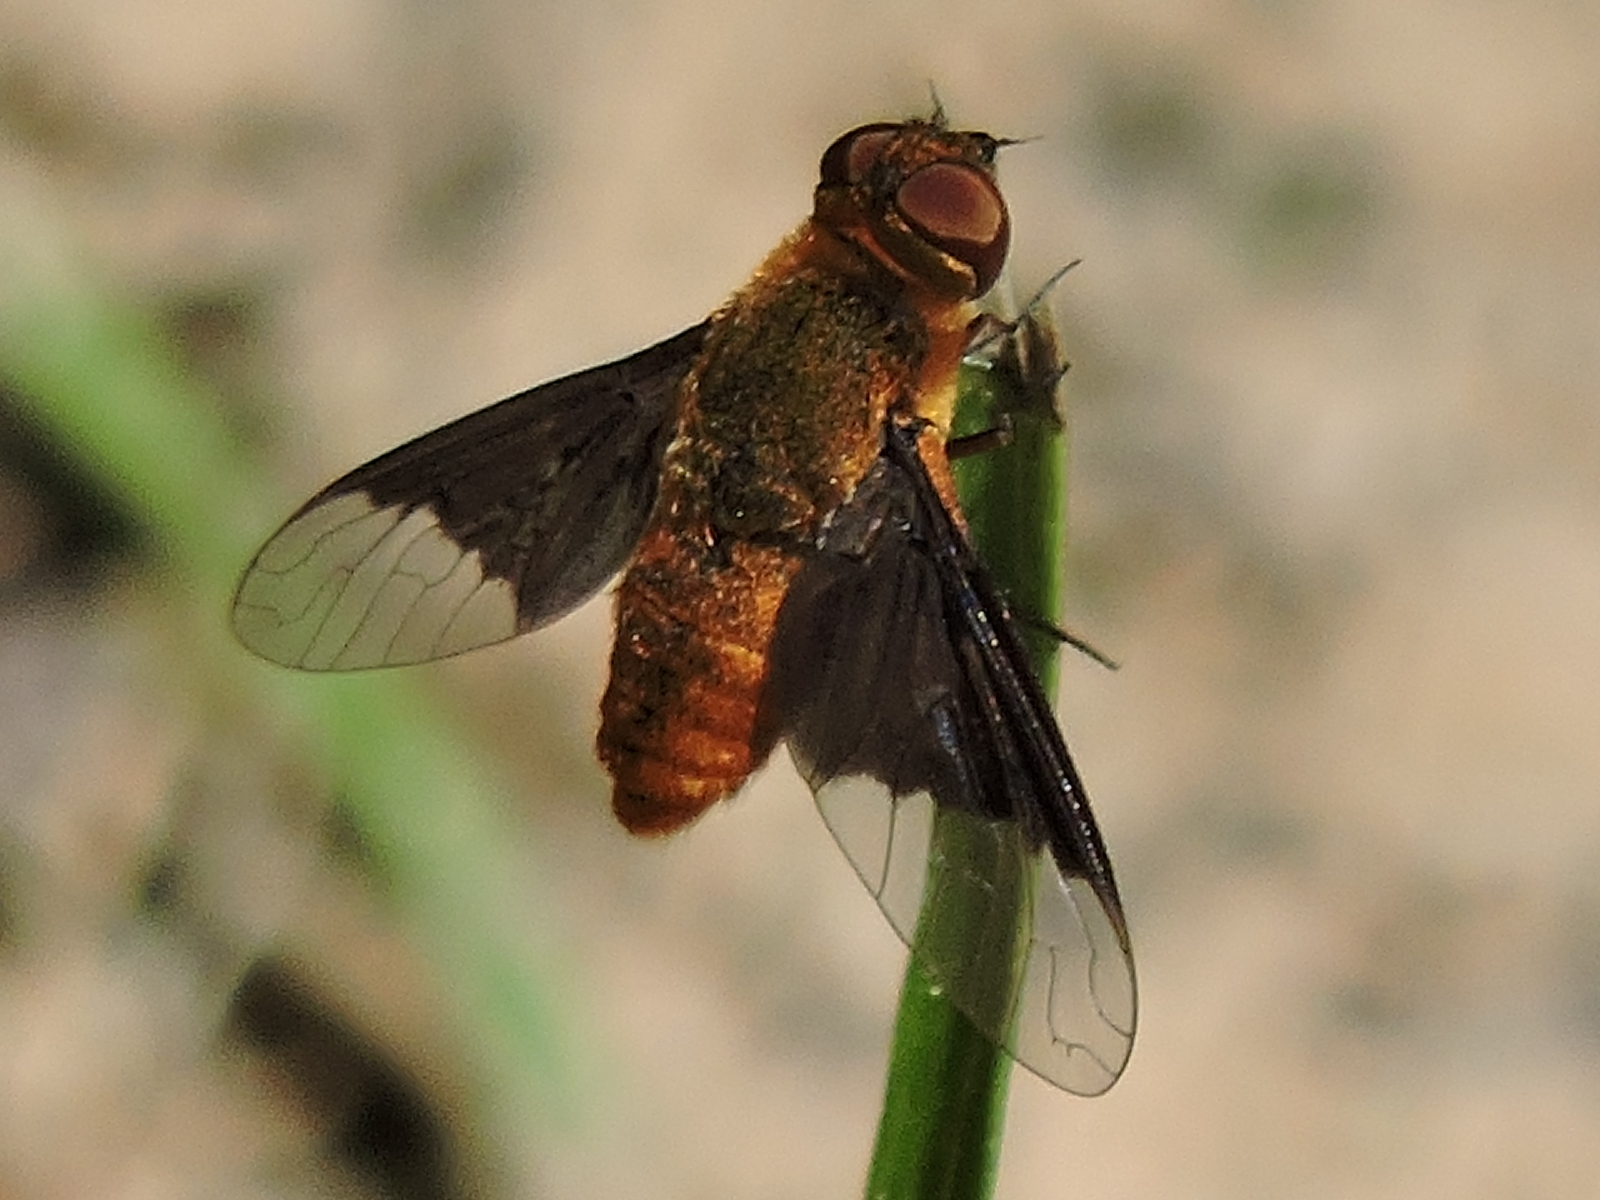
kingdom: Animalia
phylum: Arthropoda
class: Insecta
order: Diptera
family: Bombyliidae
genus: Chrysanthrax
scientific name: Chrysanthrax cypris
